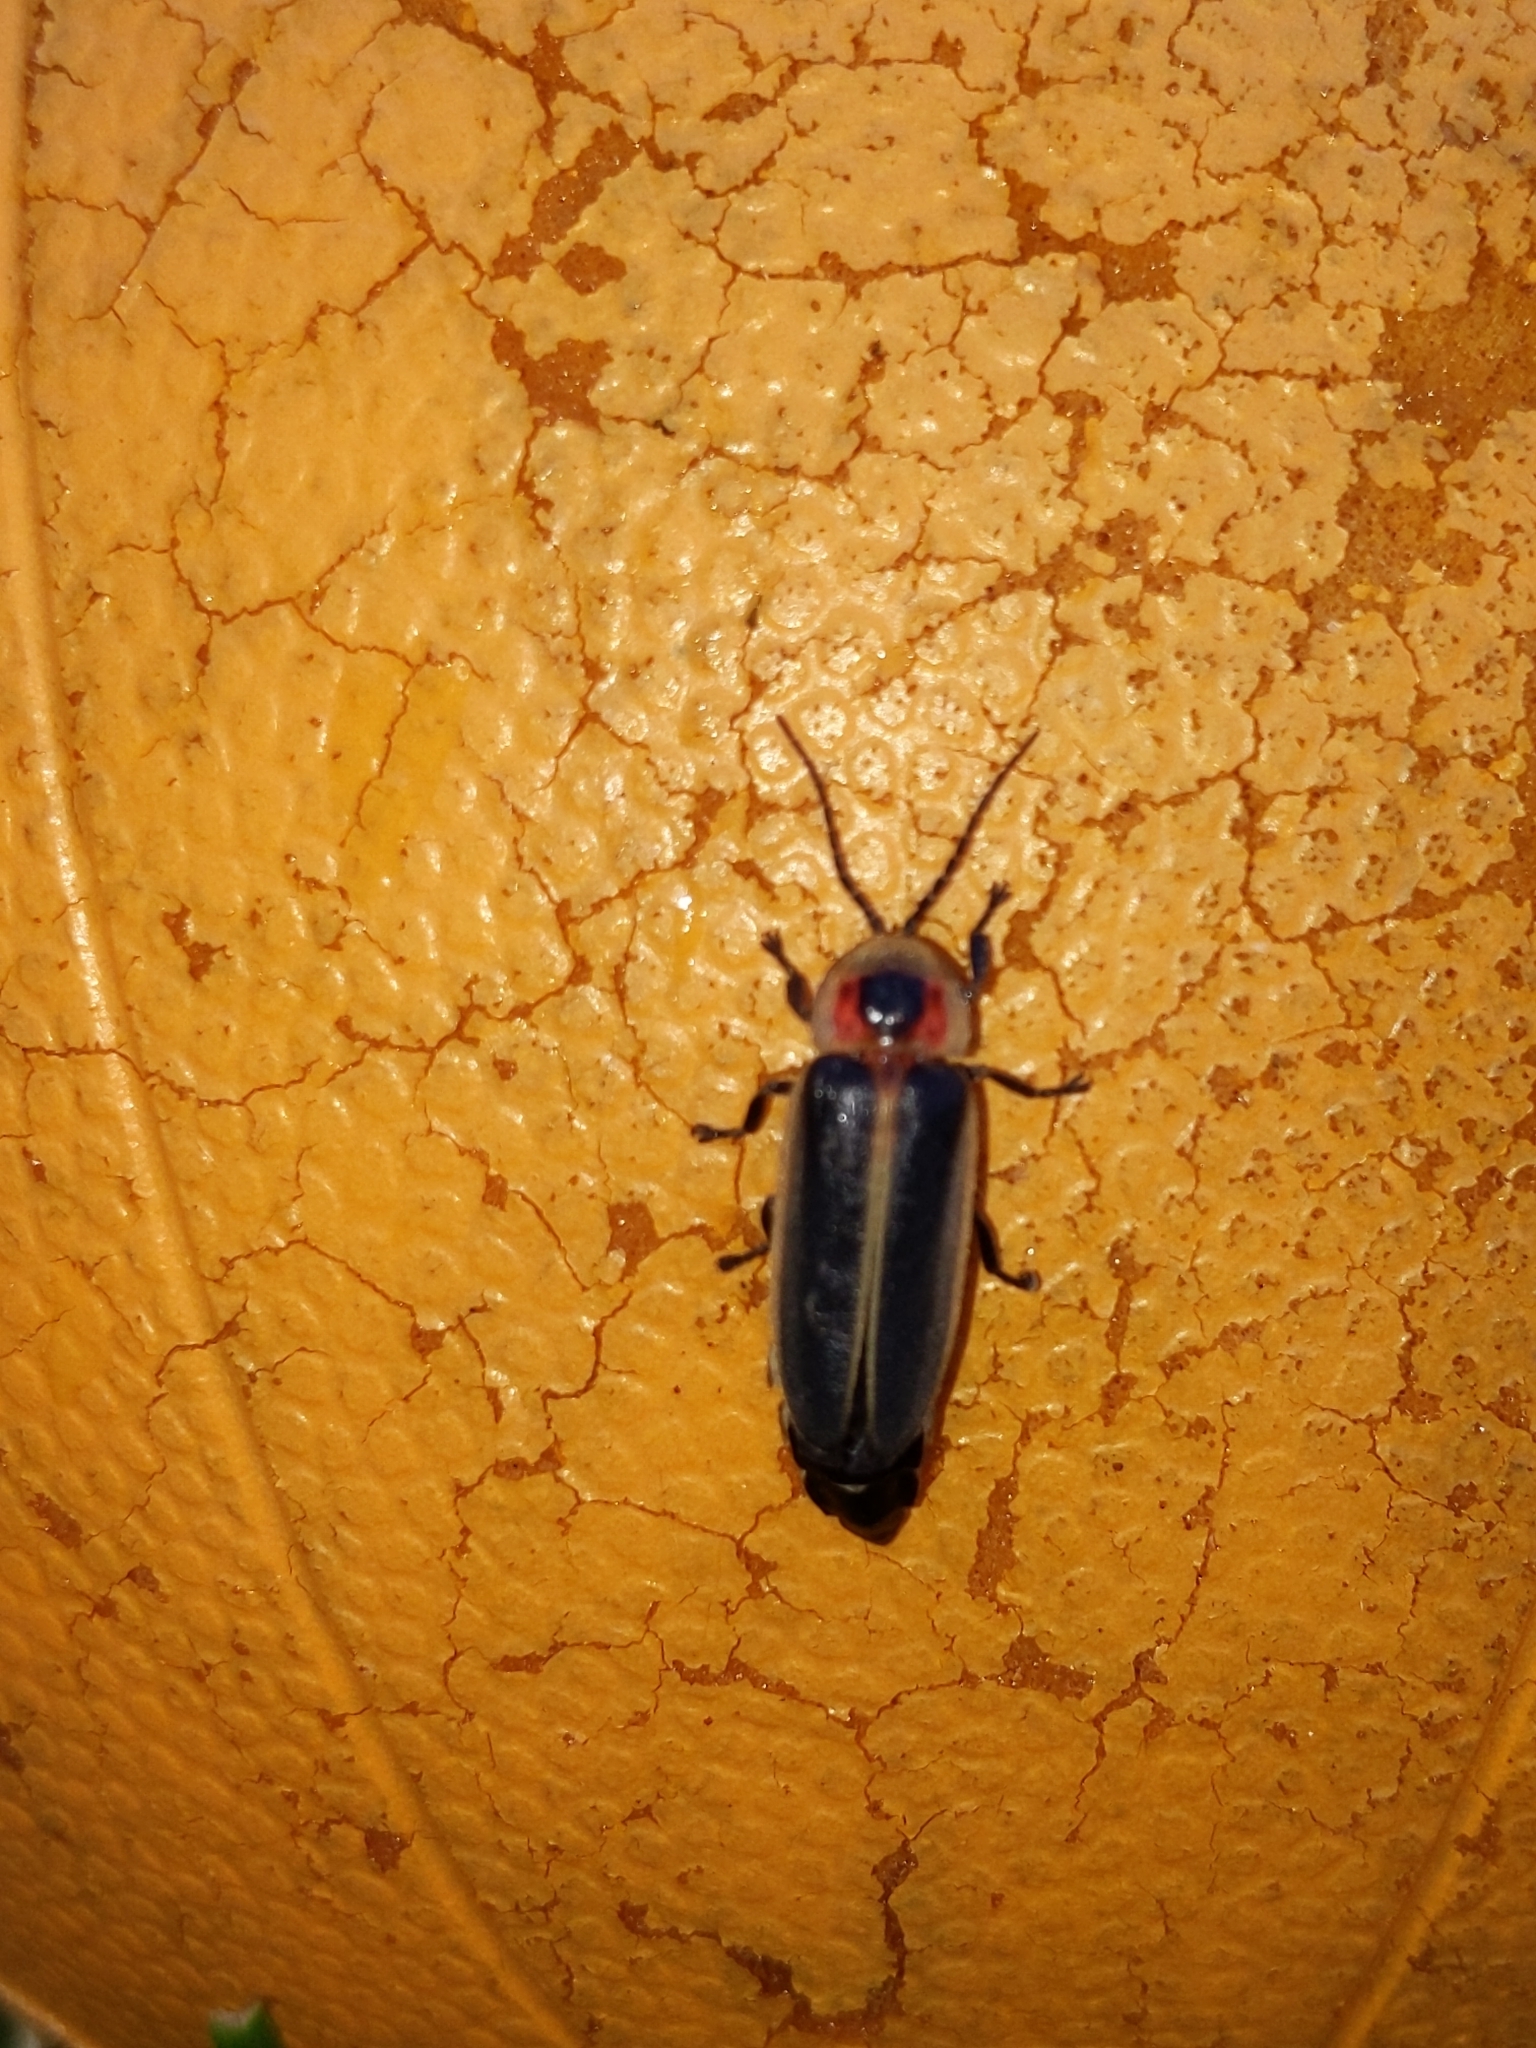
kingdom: Animalia
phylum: Arthropoda
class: Insecta
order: Coleoptera
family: Lampyridae
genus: Photinus
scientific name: Photinus pyralis
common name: Big dipper firefly
